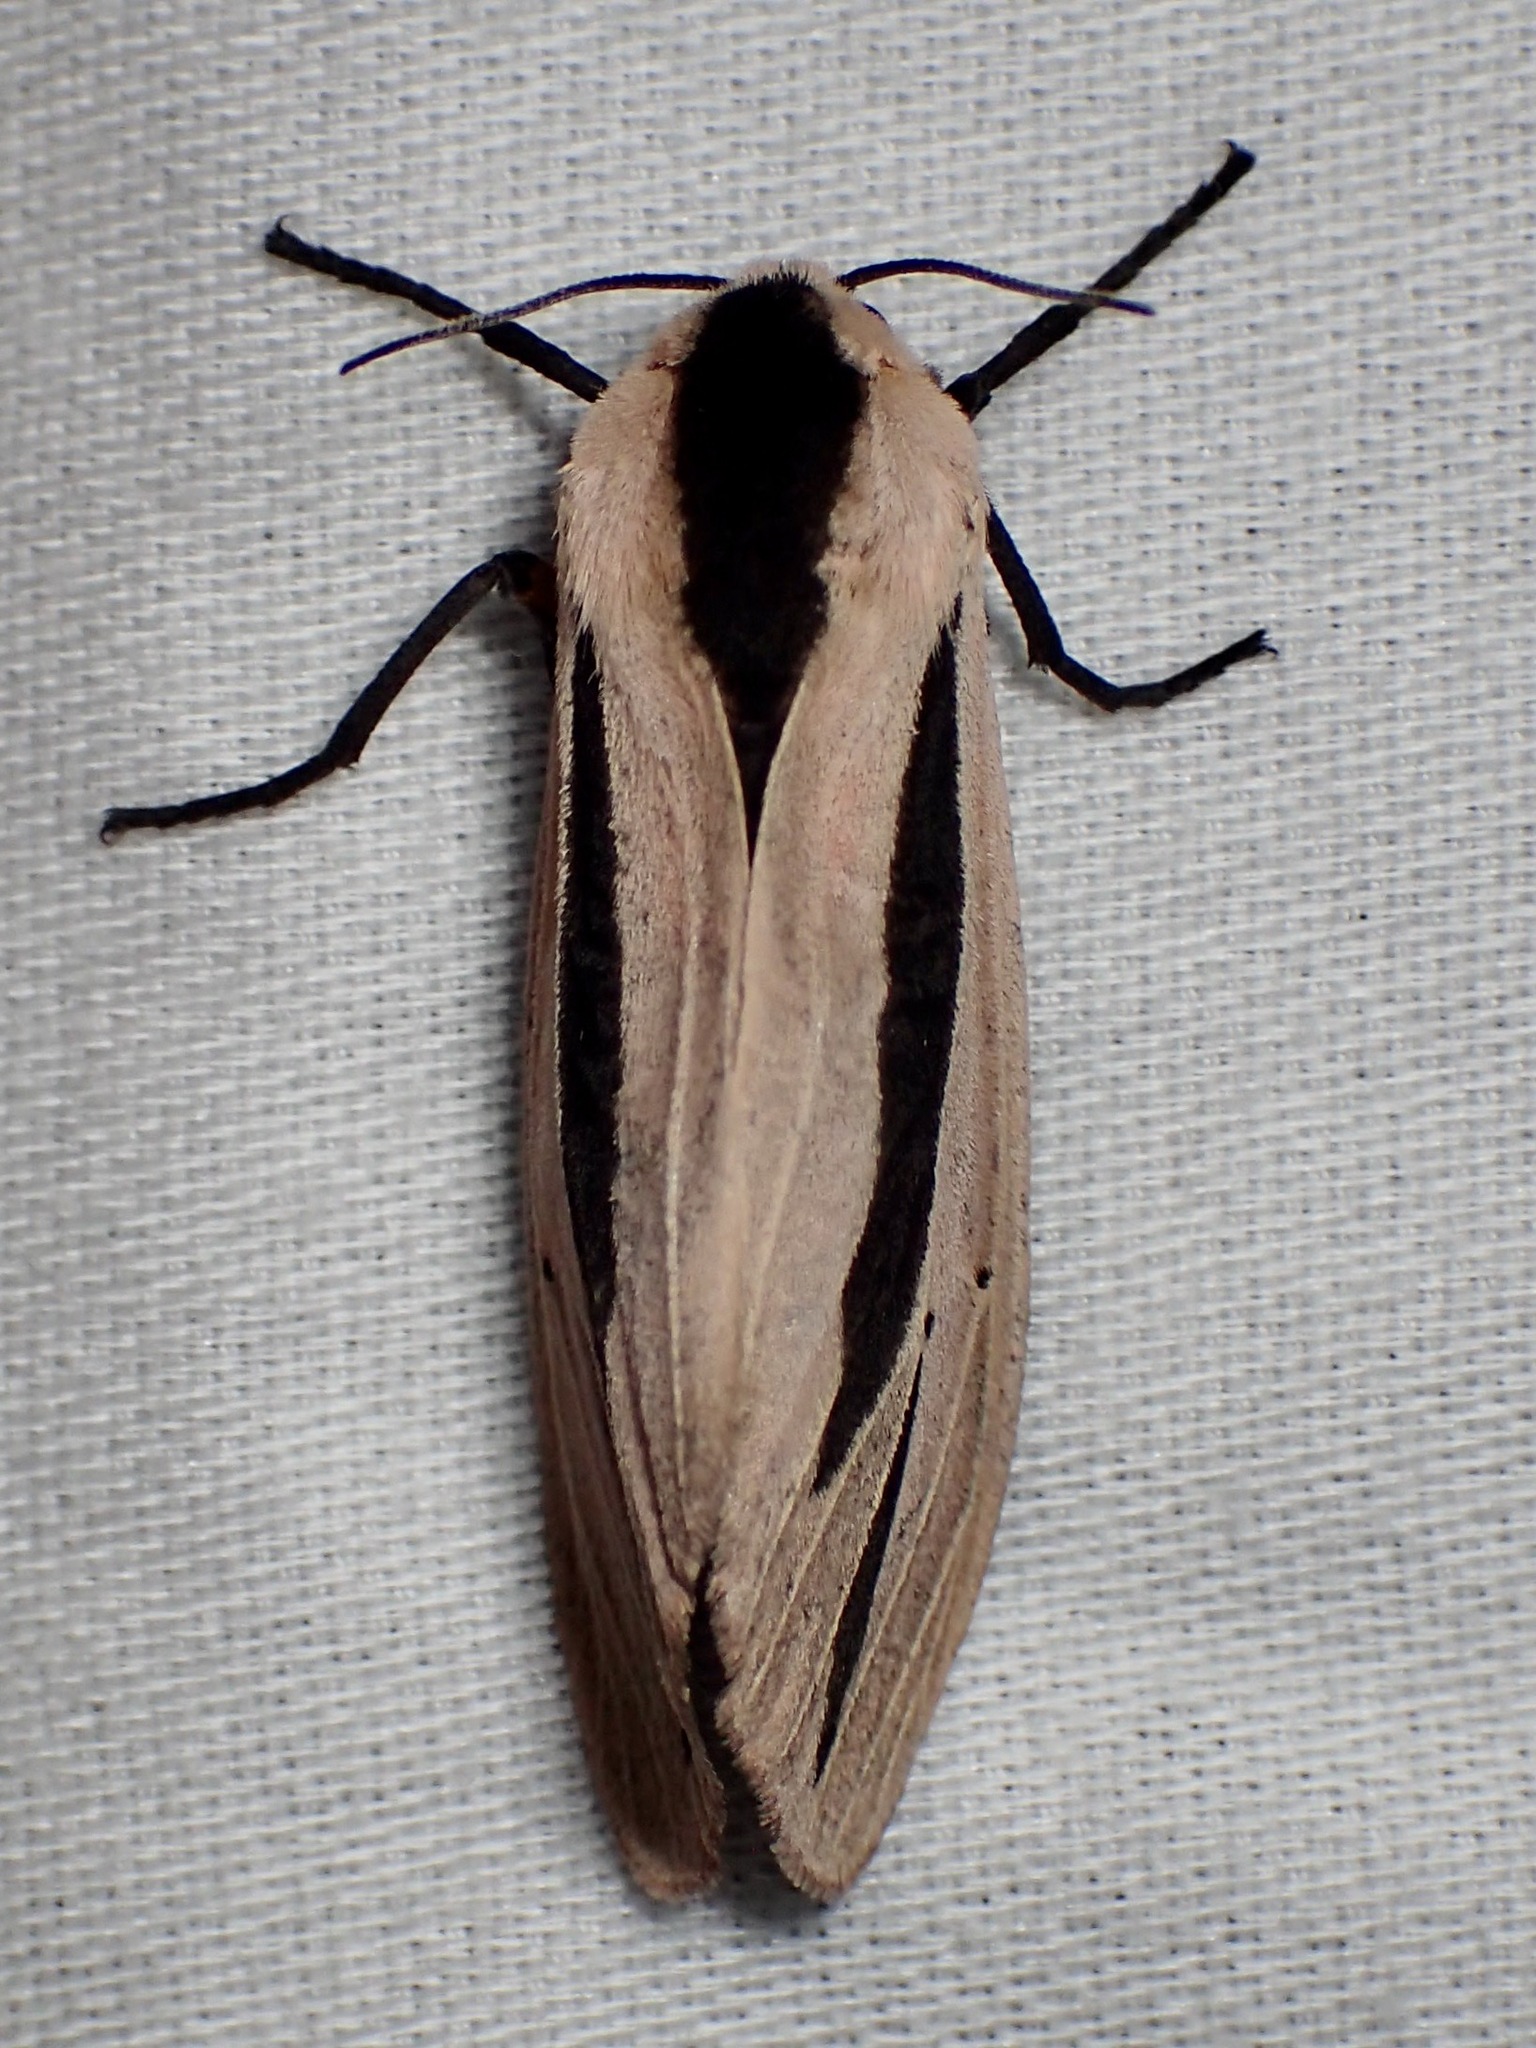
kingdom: Animalia
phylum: Arthropoda
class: Insecta
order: Lepidoptera
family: Erebidae
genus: Creatonotos
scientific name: Creatonotos gangis
